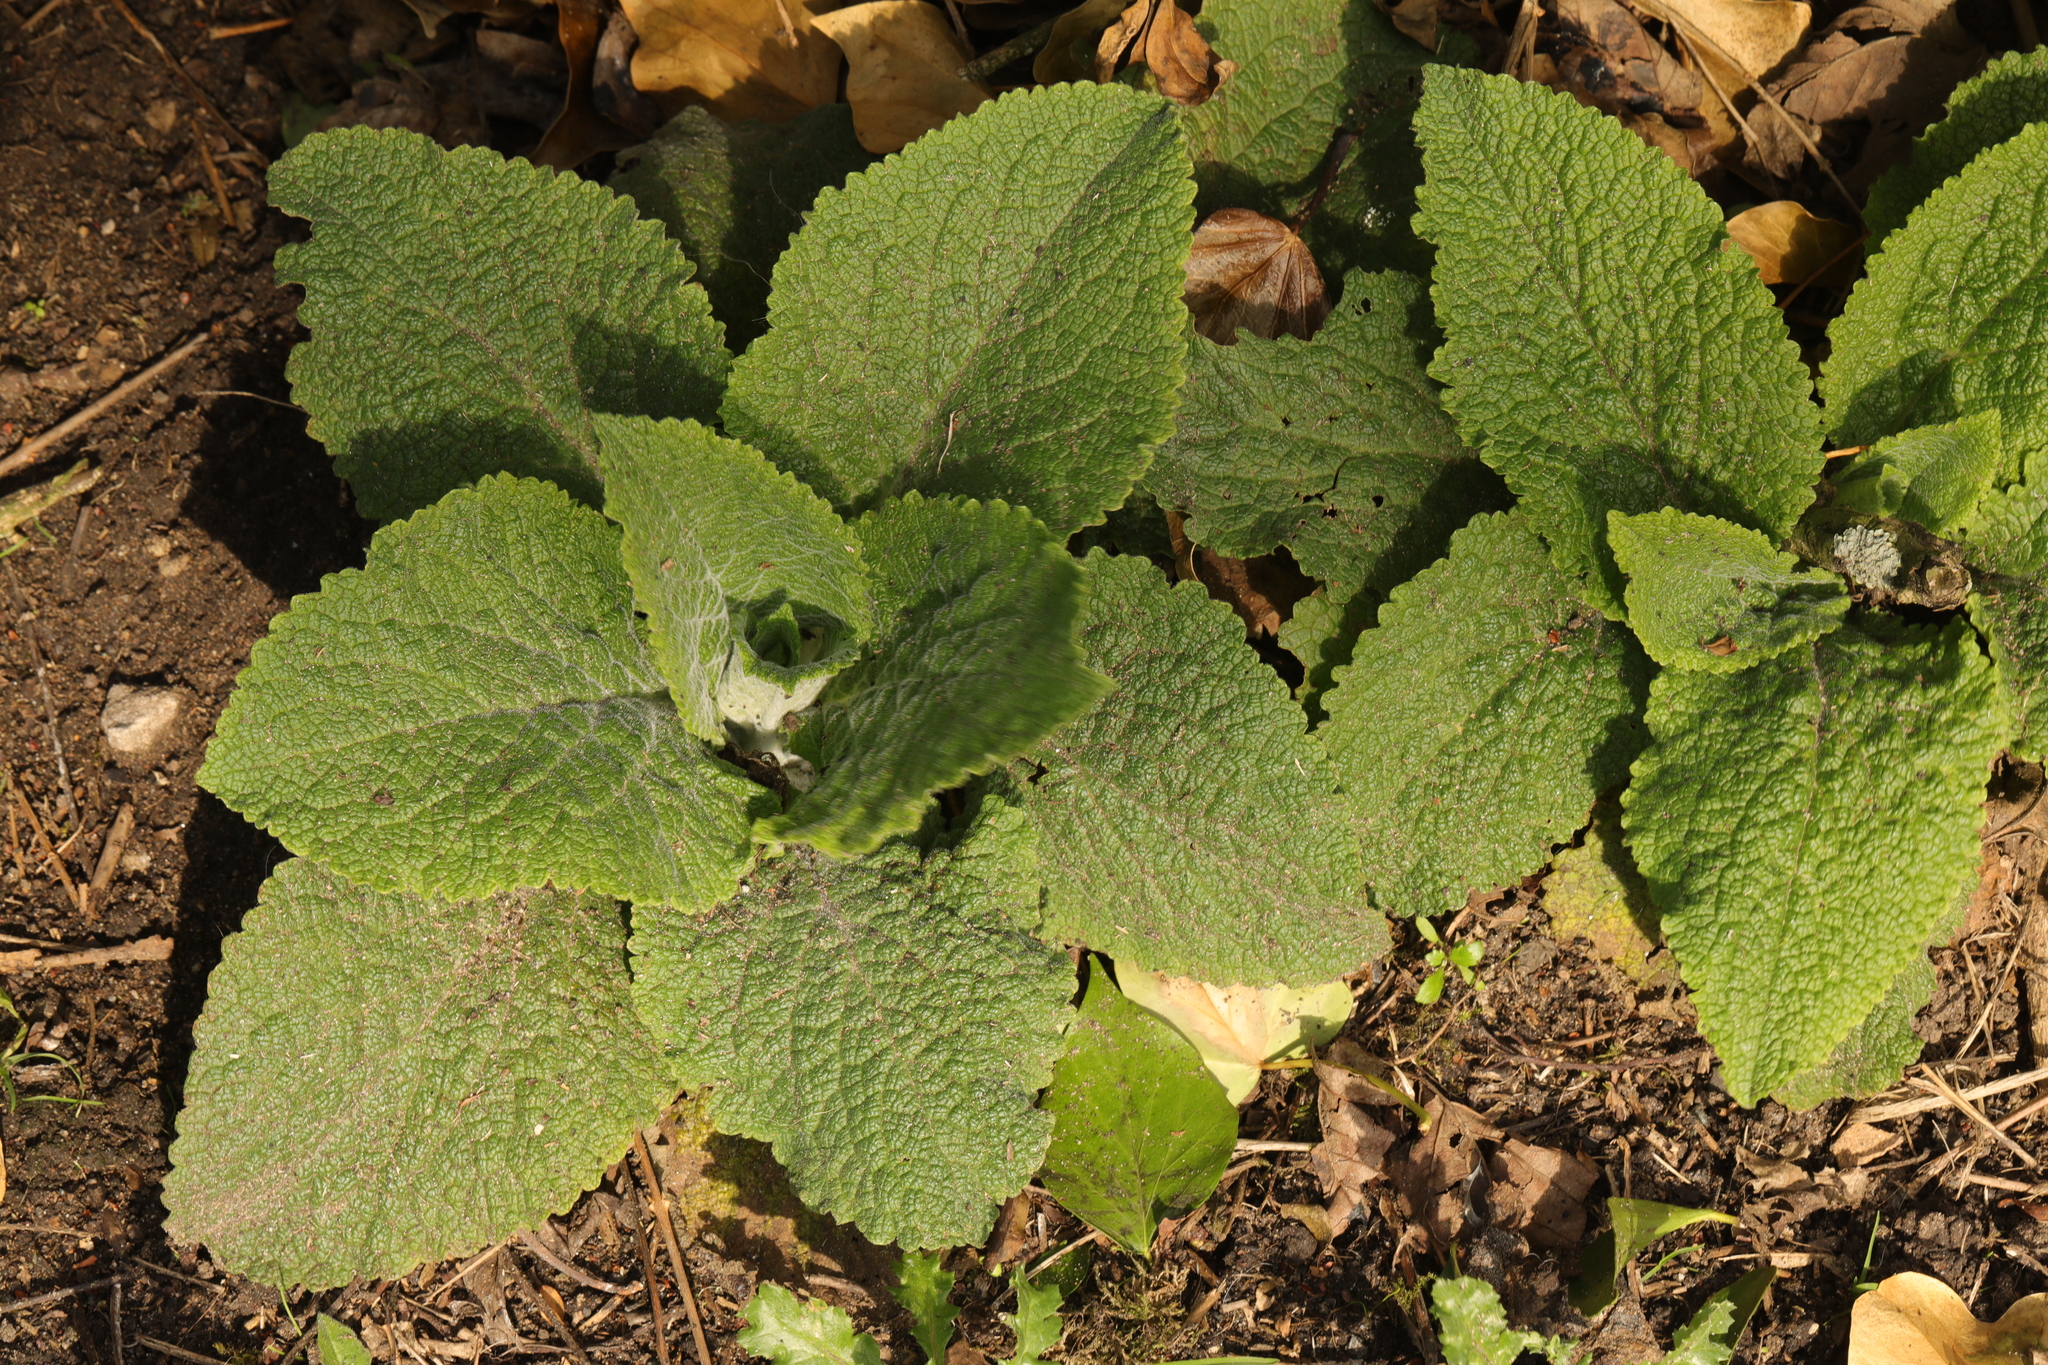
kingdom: Plantae
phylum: Tracheophyta
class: Magnoliopsida
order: Lamiales
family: Plantaginaceae
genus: Digitalis
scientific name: Digitalis purpurea
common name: Foxglove
